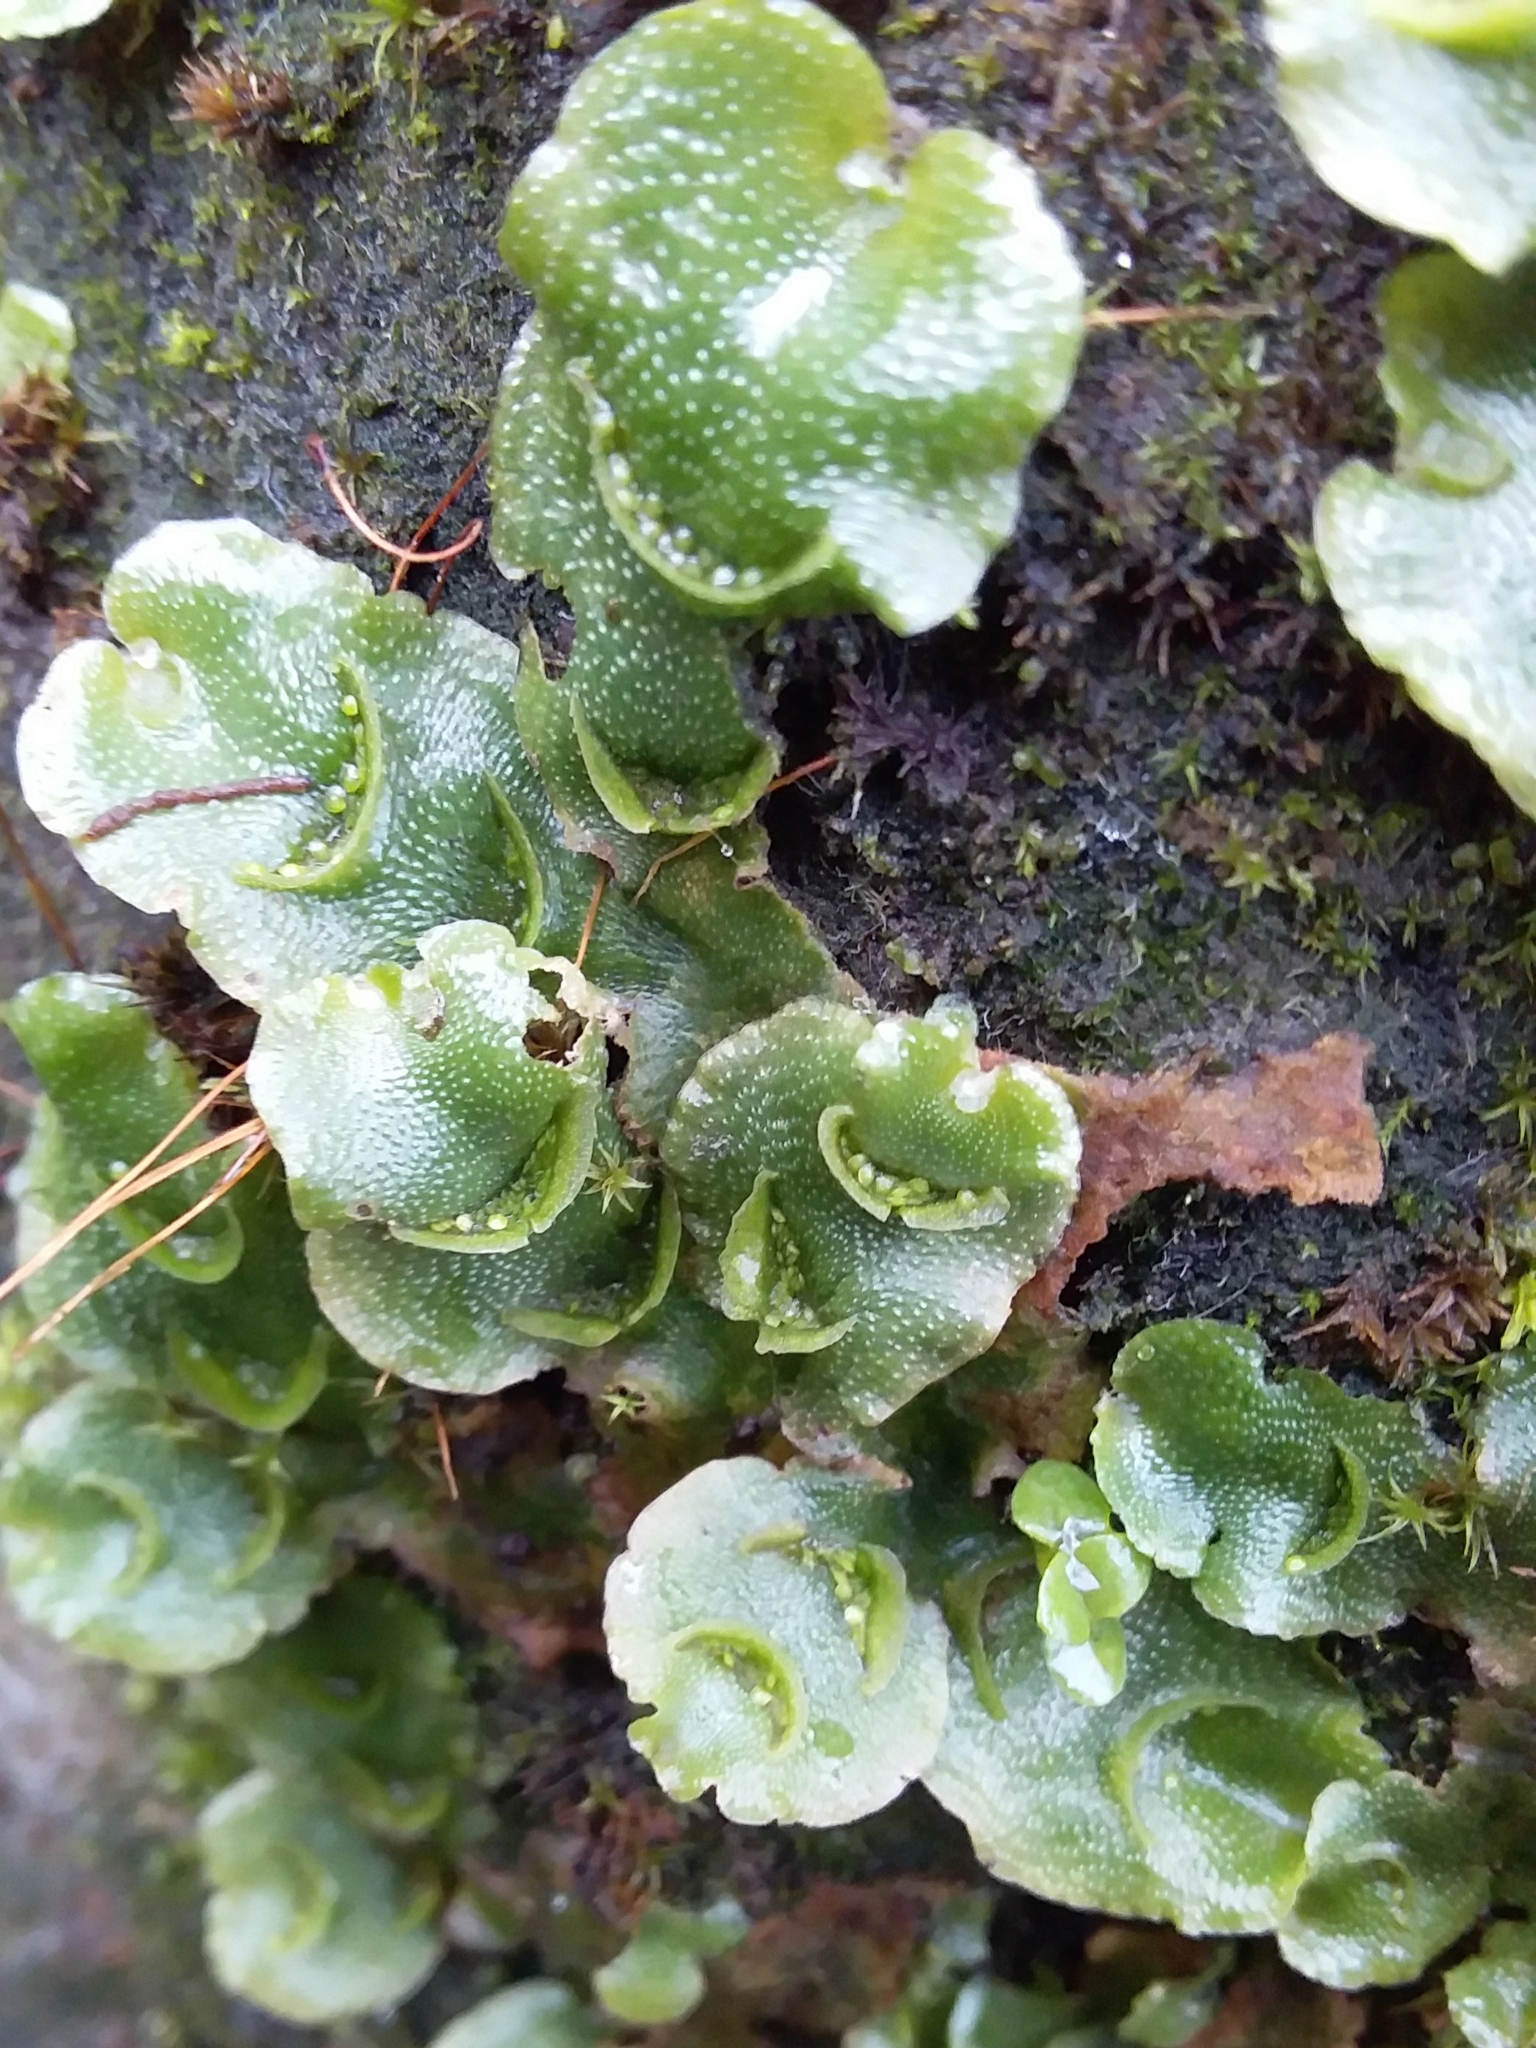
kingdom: Plantae
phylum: Marchantiophyta
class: Marchantiopsida
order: Lunulariales
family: Lunulariaceae
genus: Lunularia
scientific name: Lunularia cruciata
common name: Crescent-cup liverwort
